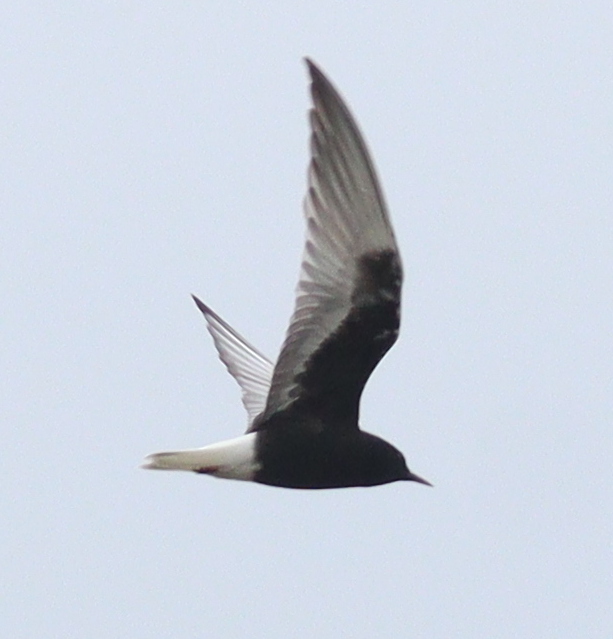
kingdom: Animalia
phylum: Chordata
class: Aves
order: Charadriiformes
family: Laridae
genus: Chlidonias
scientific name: Chlidonias leucopterus
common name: White-winged tern
